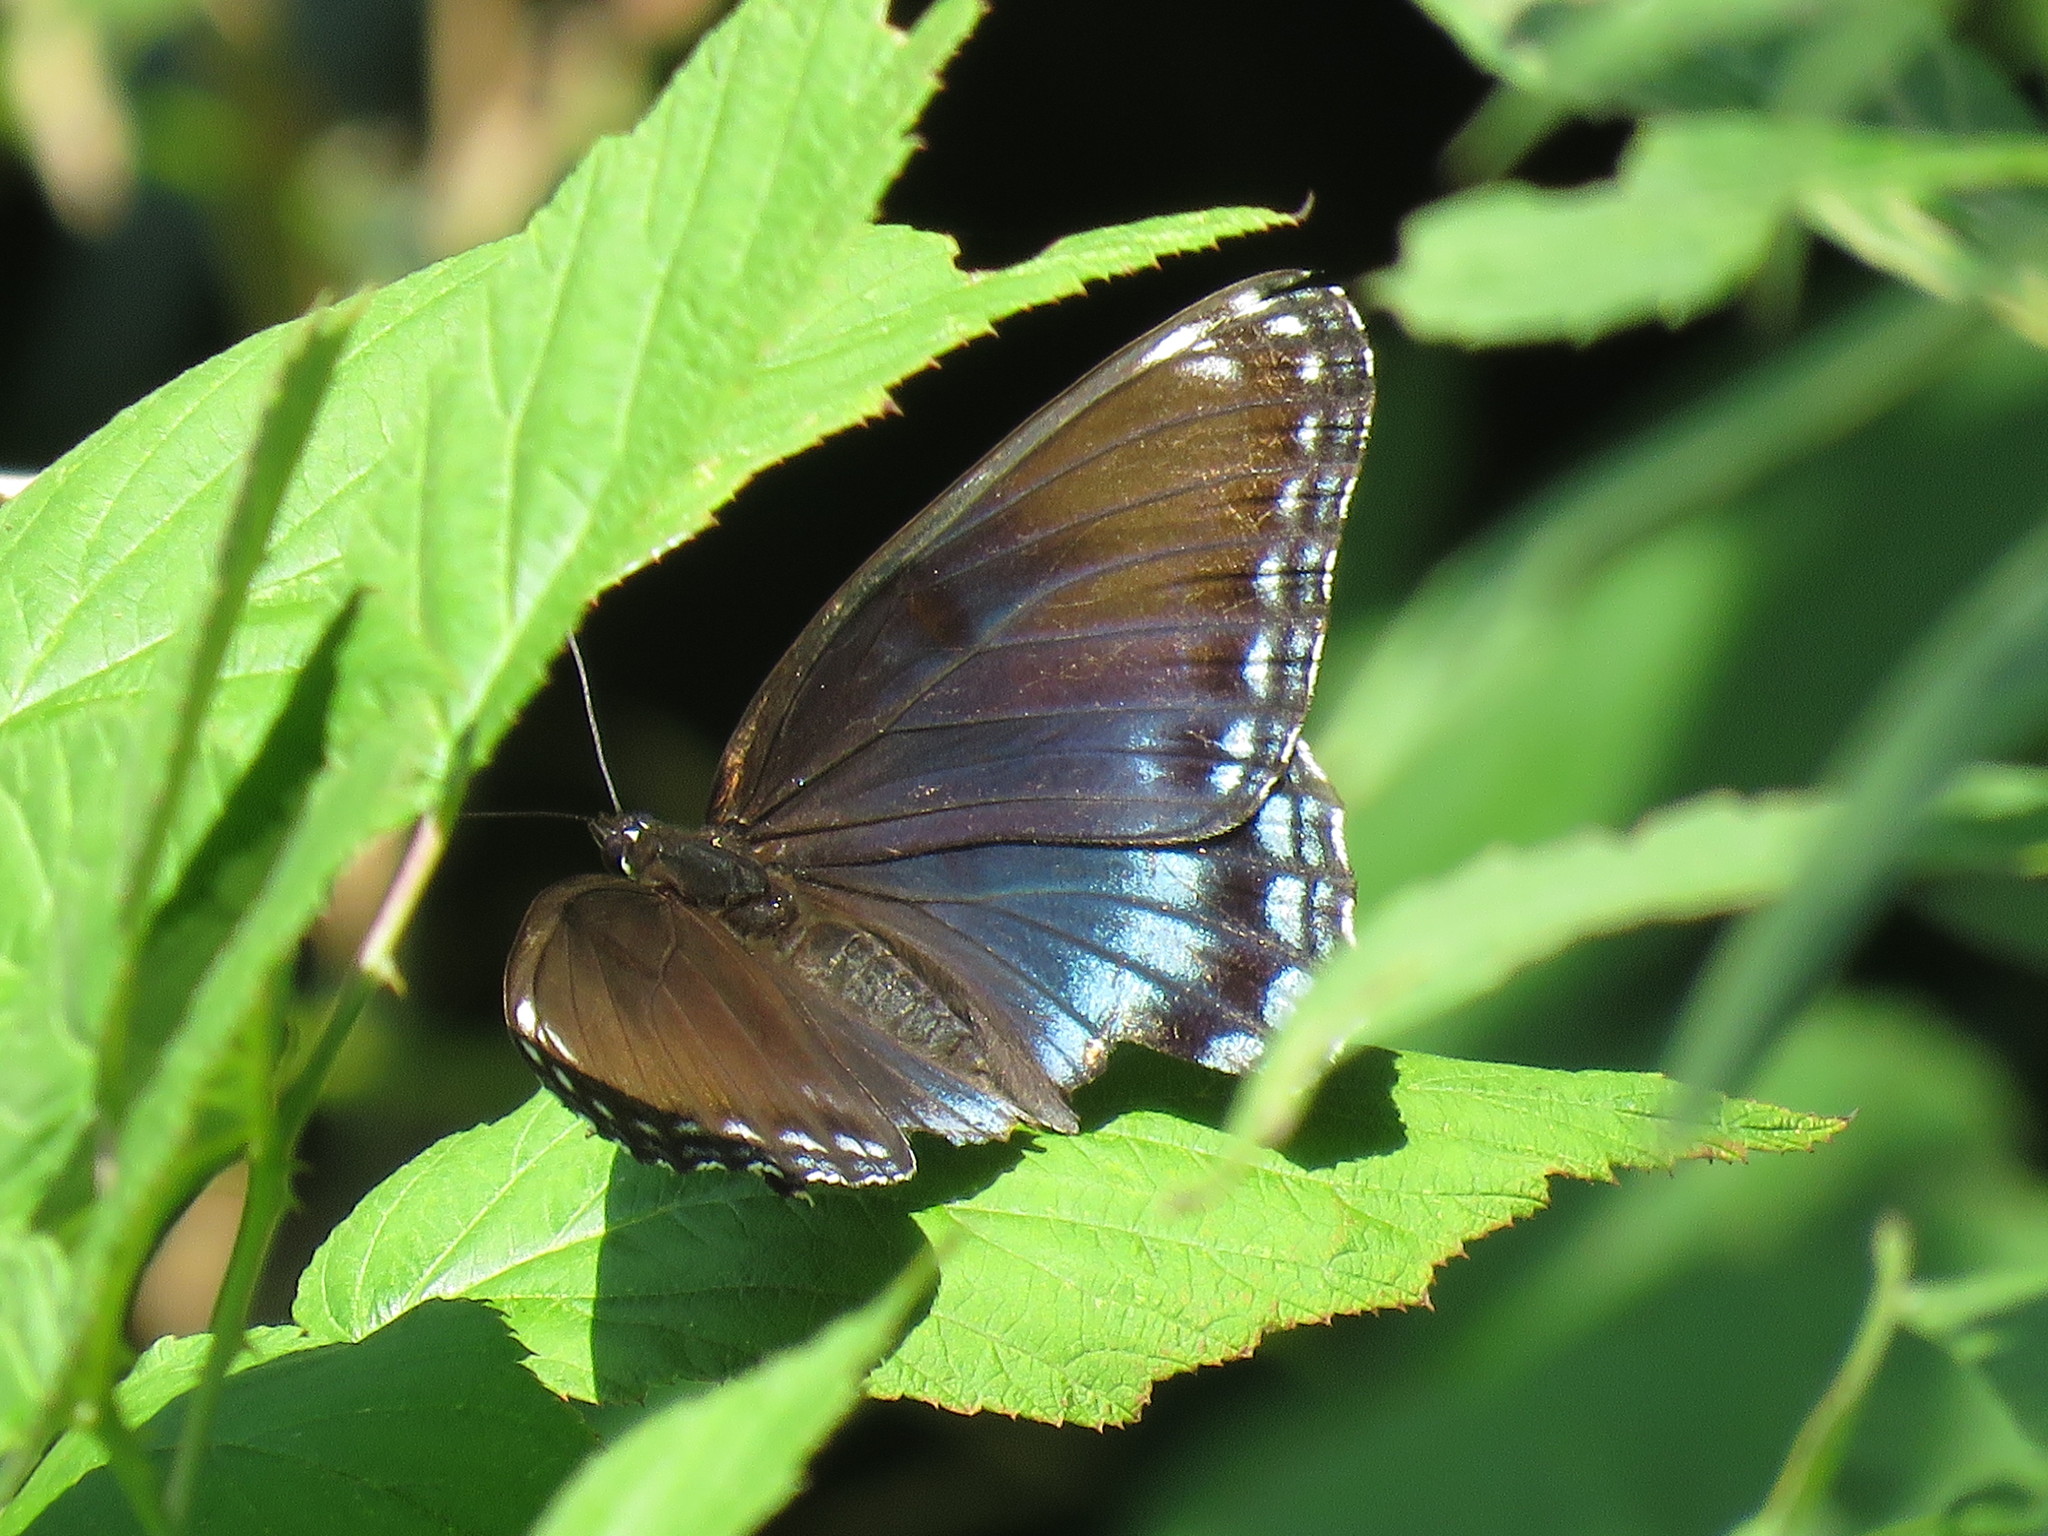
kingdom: Animalia
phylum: Arthropoda
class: Insecta
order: Lepidoptera
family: Nymphalidae
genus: Limenitis
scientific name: Limenitis arthemis
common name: Red-spotted admiral
